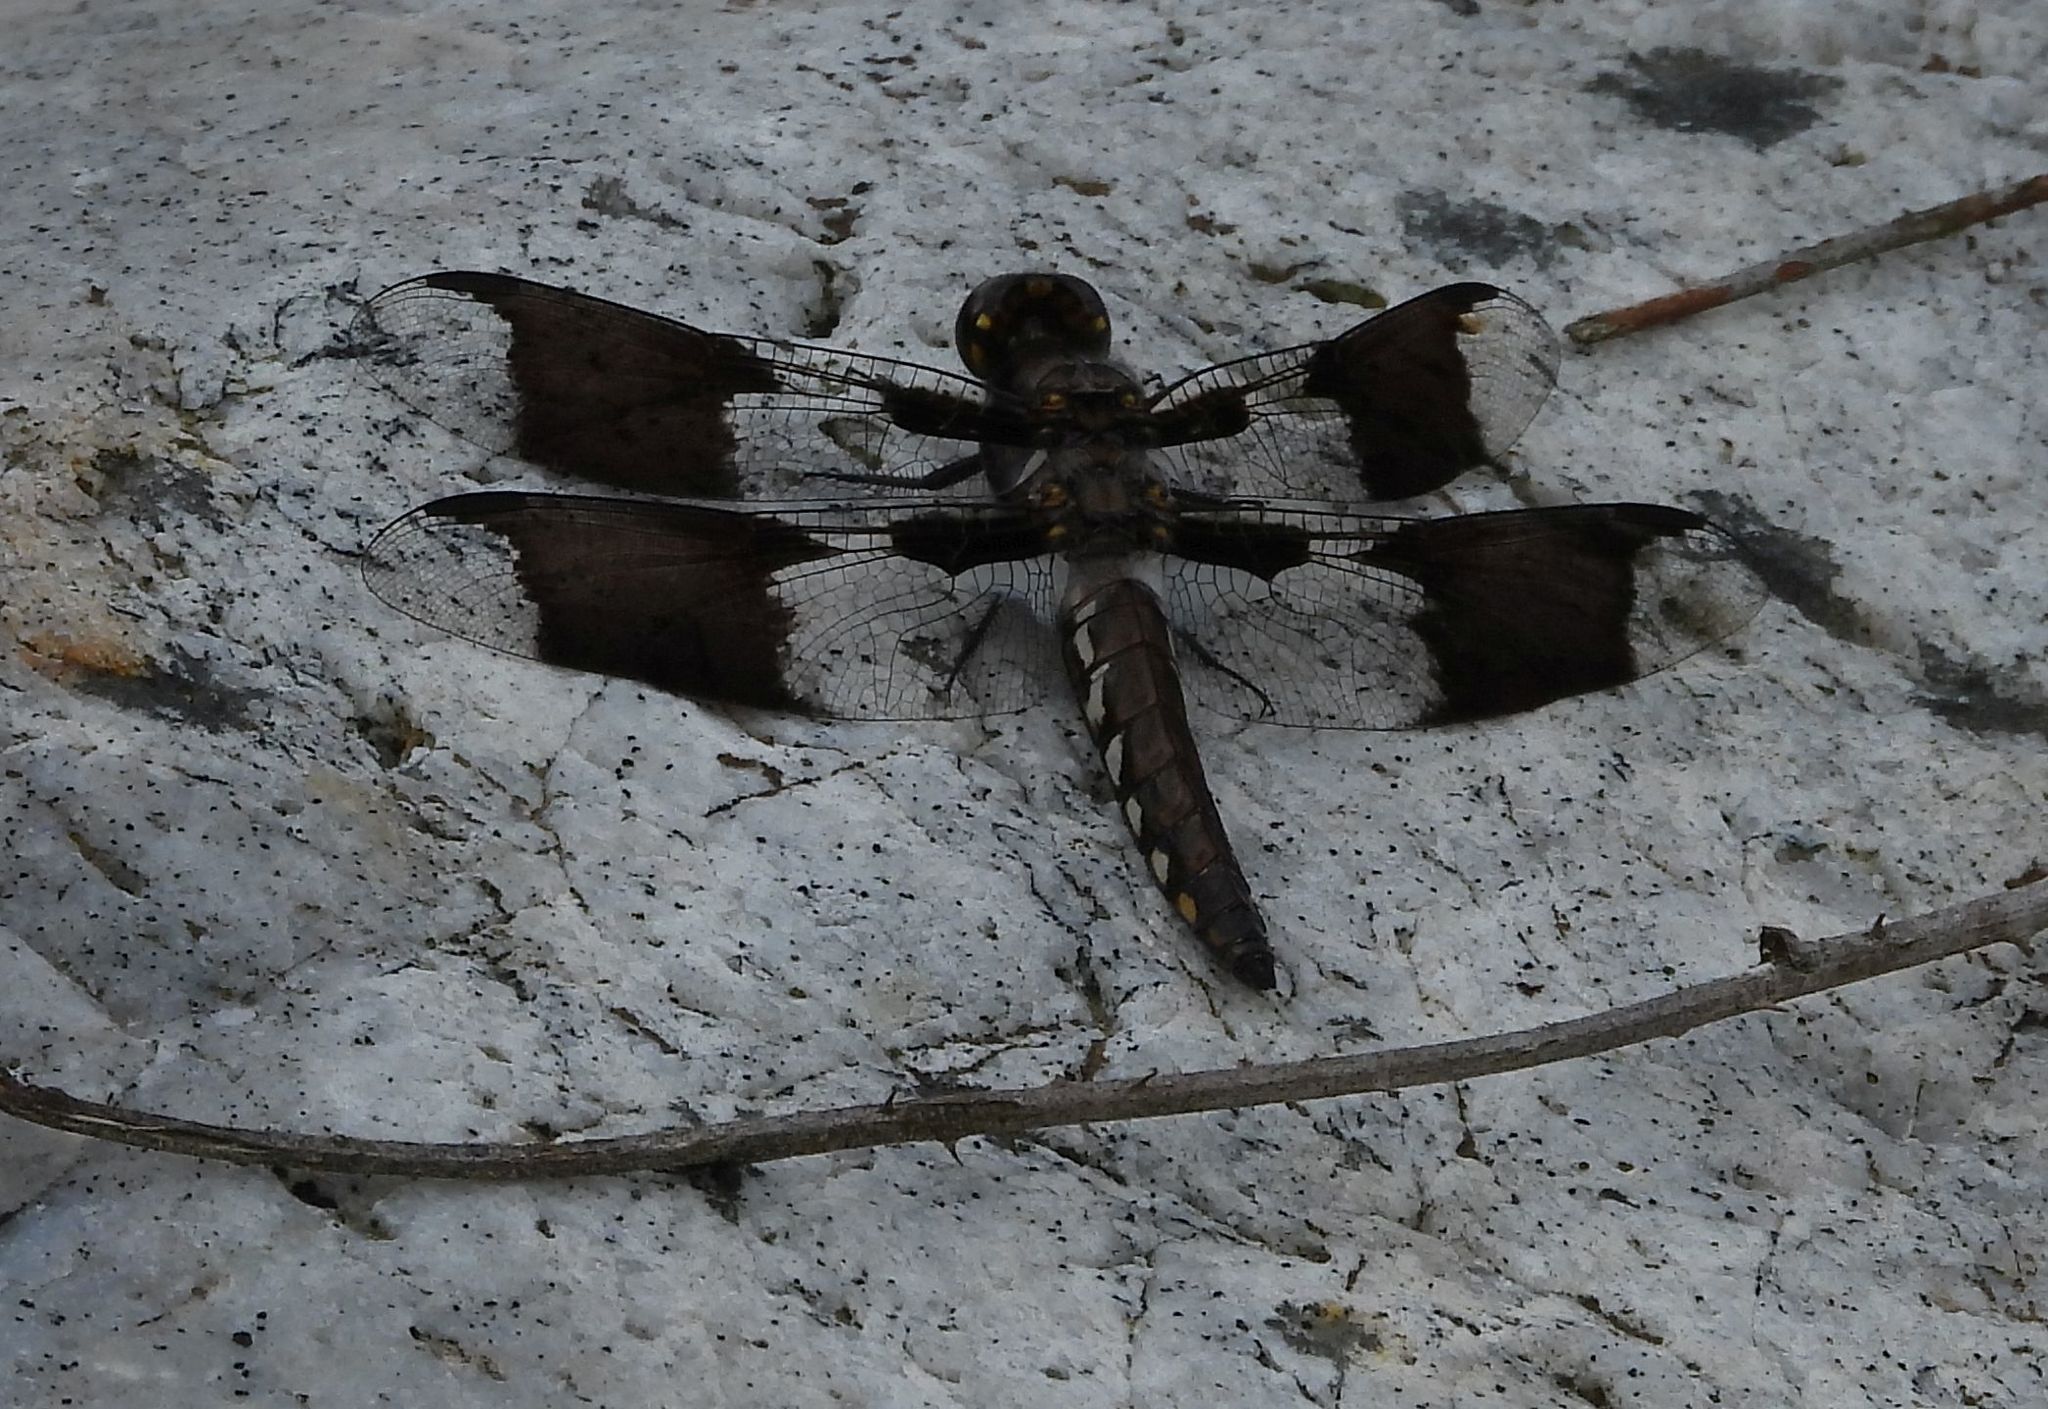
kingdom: Animalia
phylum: Arthropoda
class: Insecta
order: Odonata
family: Libellulidae
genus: Plathemis
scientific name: Plathemis lydia
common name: Common whitetail
